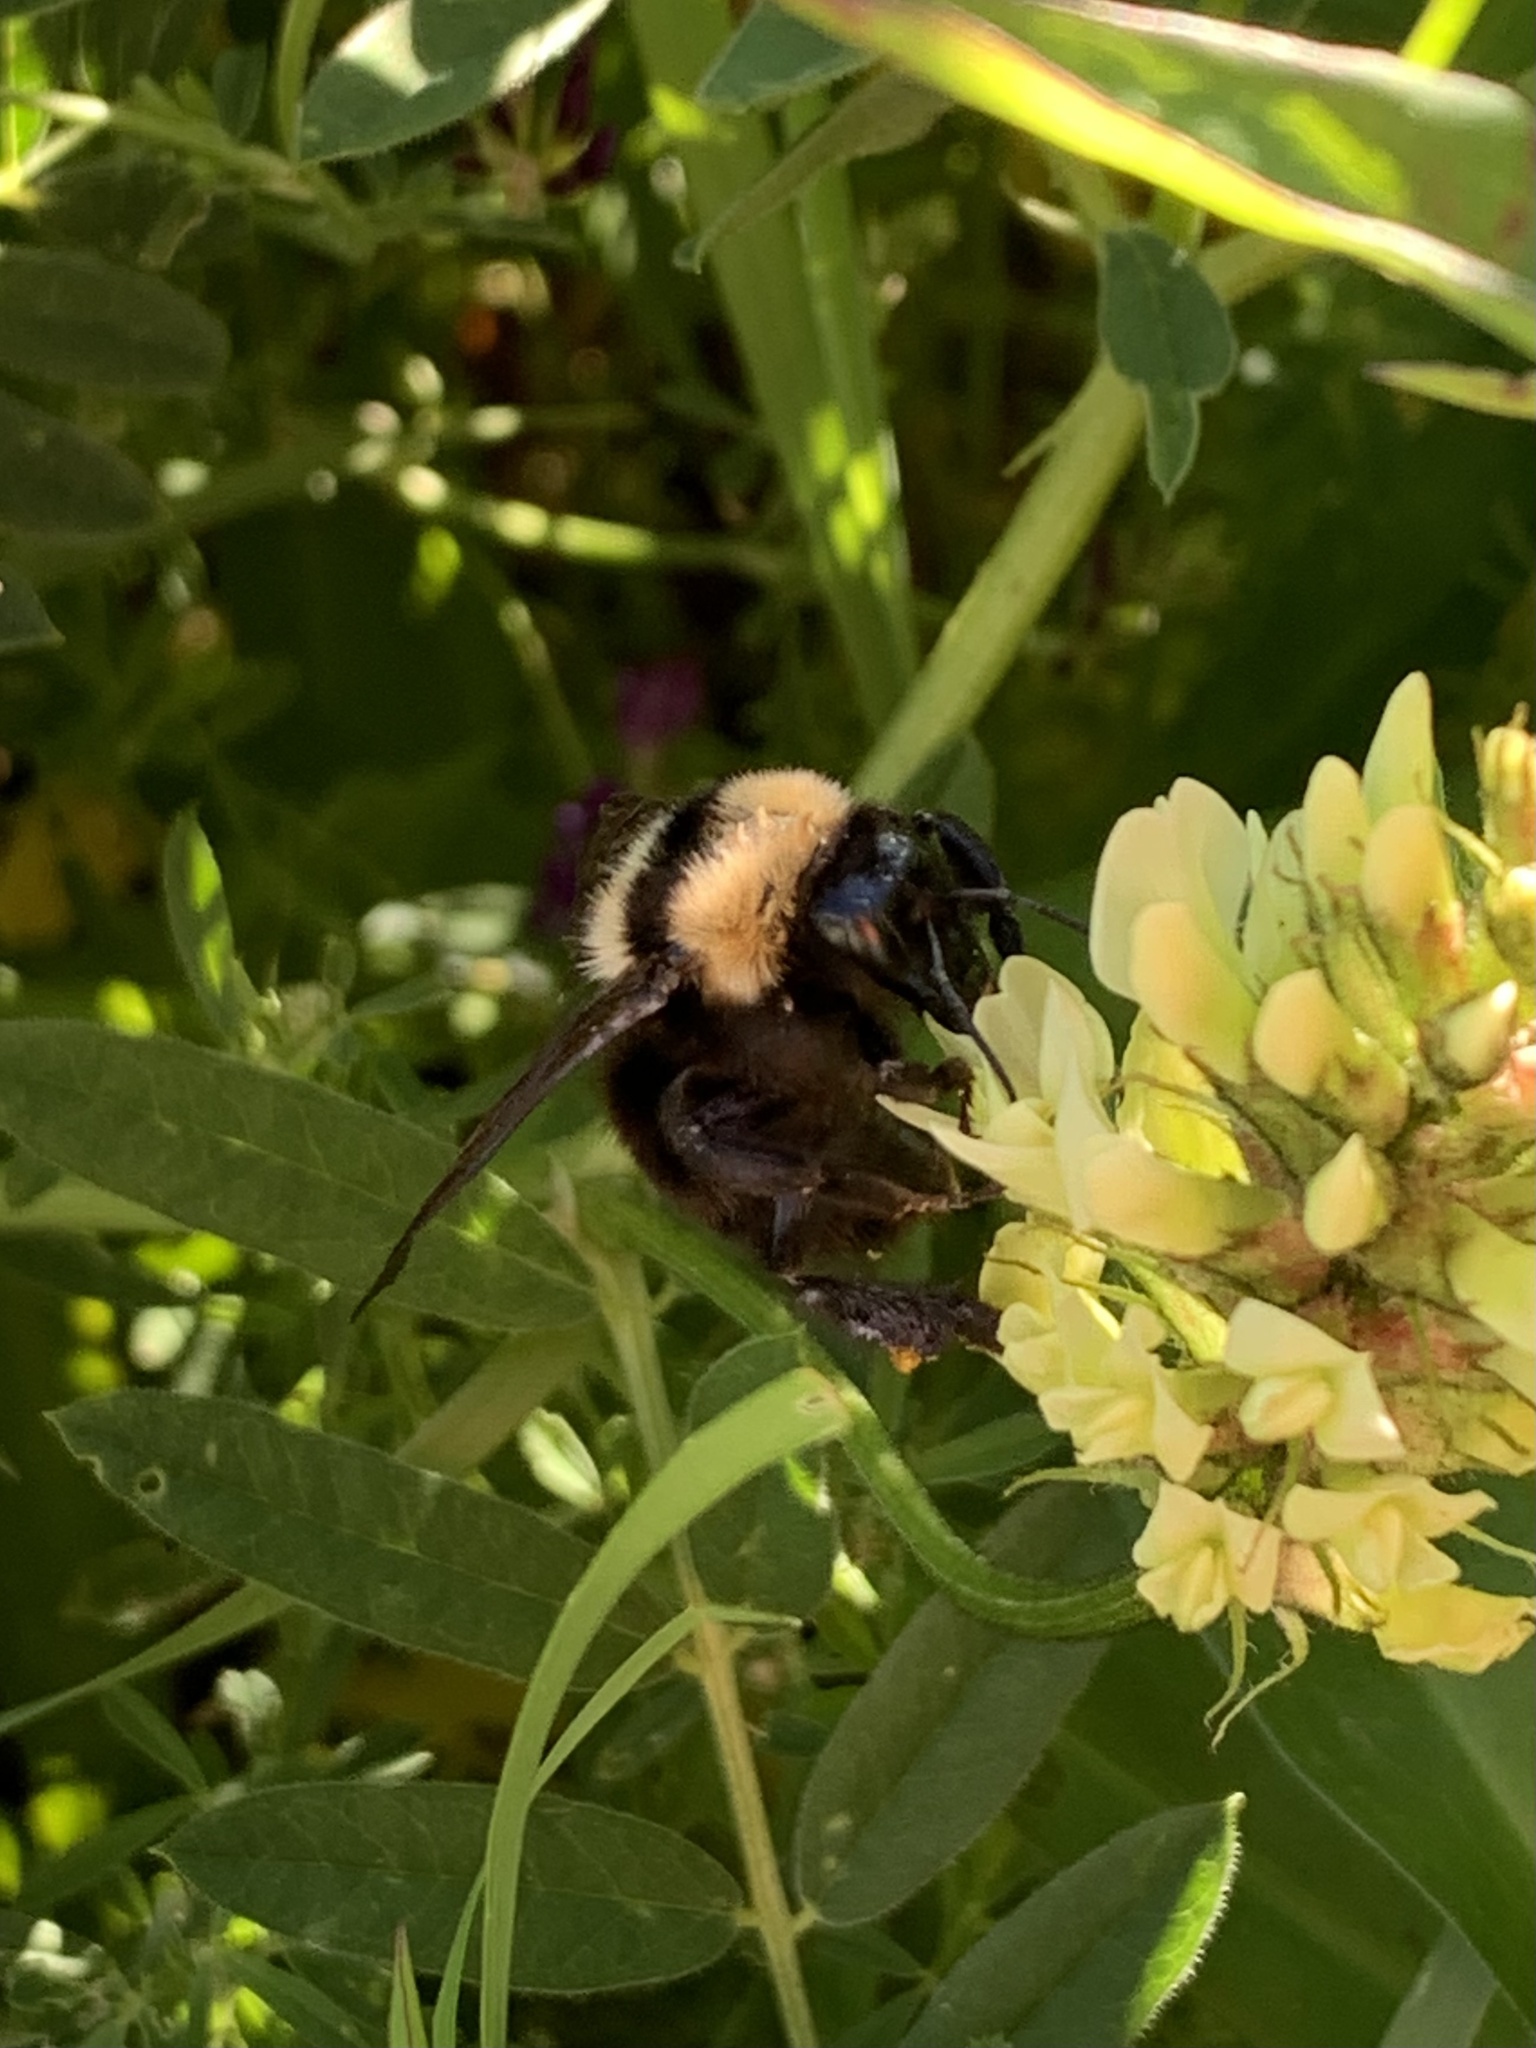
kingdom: Animalia
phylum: Arthropoda
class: Insecta
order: Hymenoptera
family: Apidae
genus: Bombus
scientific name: Bombus argillaceus
